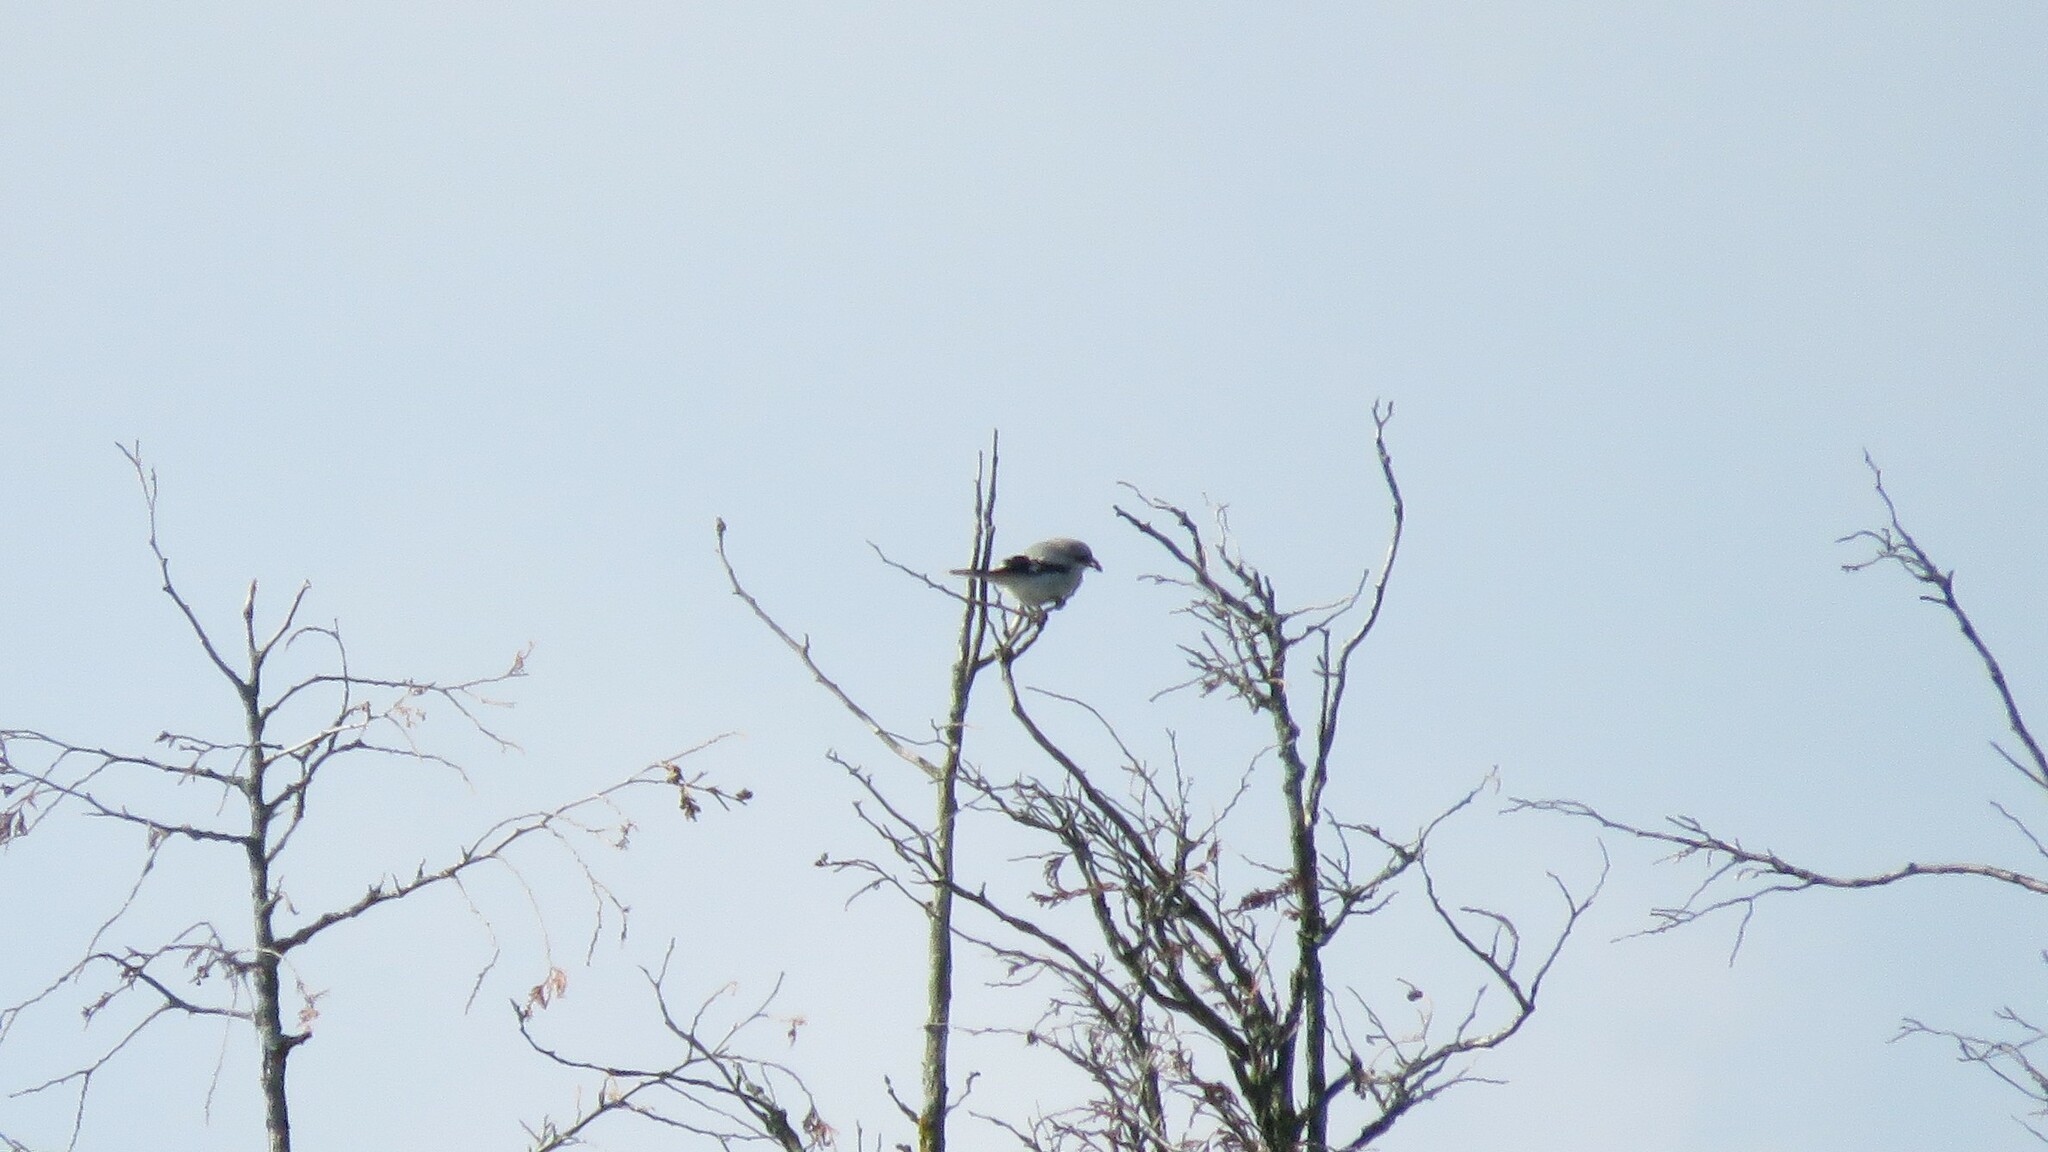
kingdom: Animalia
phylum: Chordata
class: Aves
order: Passeriformes
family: Laniidae
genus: Lanius
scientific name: Lanius ludovicianus
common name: Loggerhead shrike
